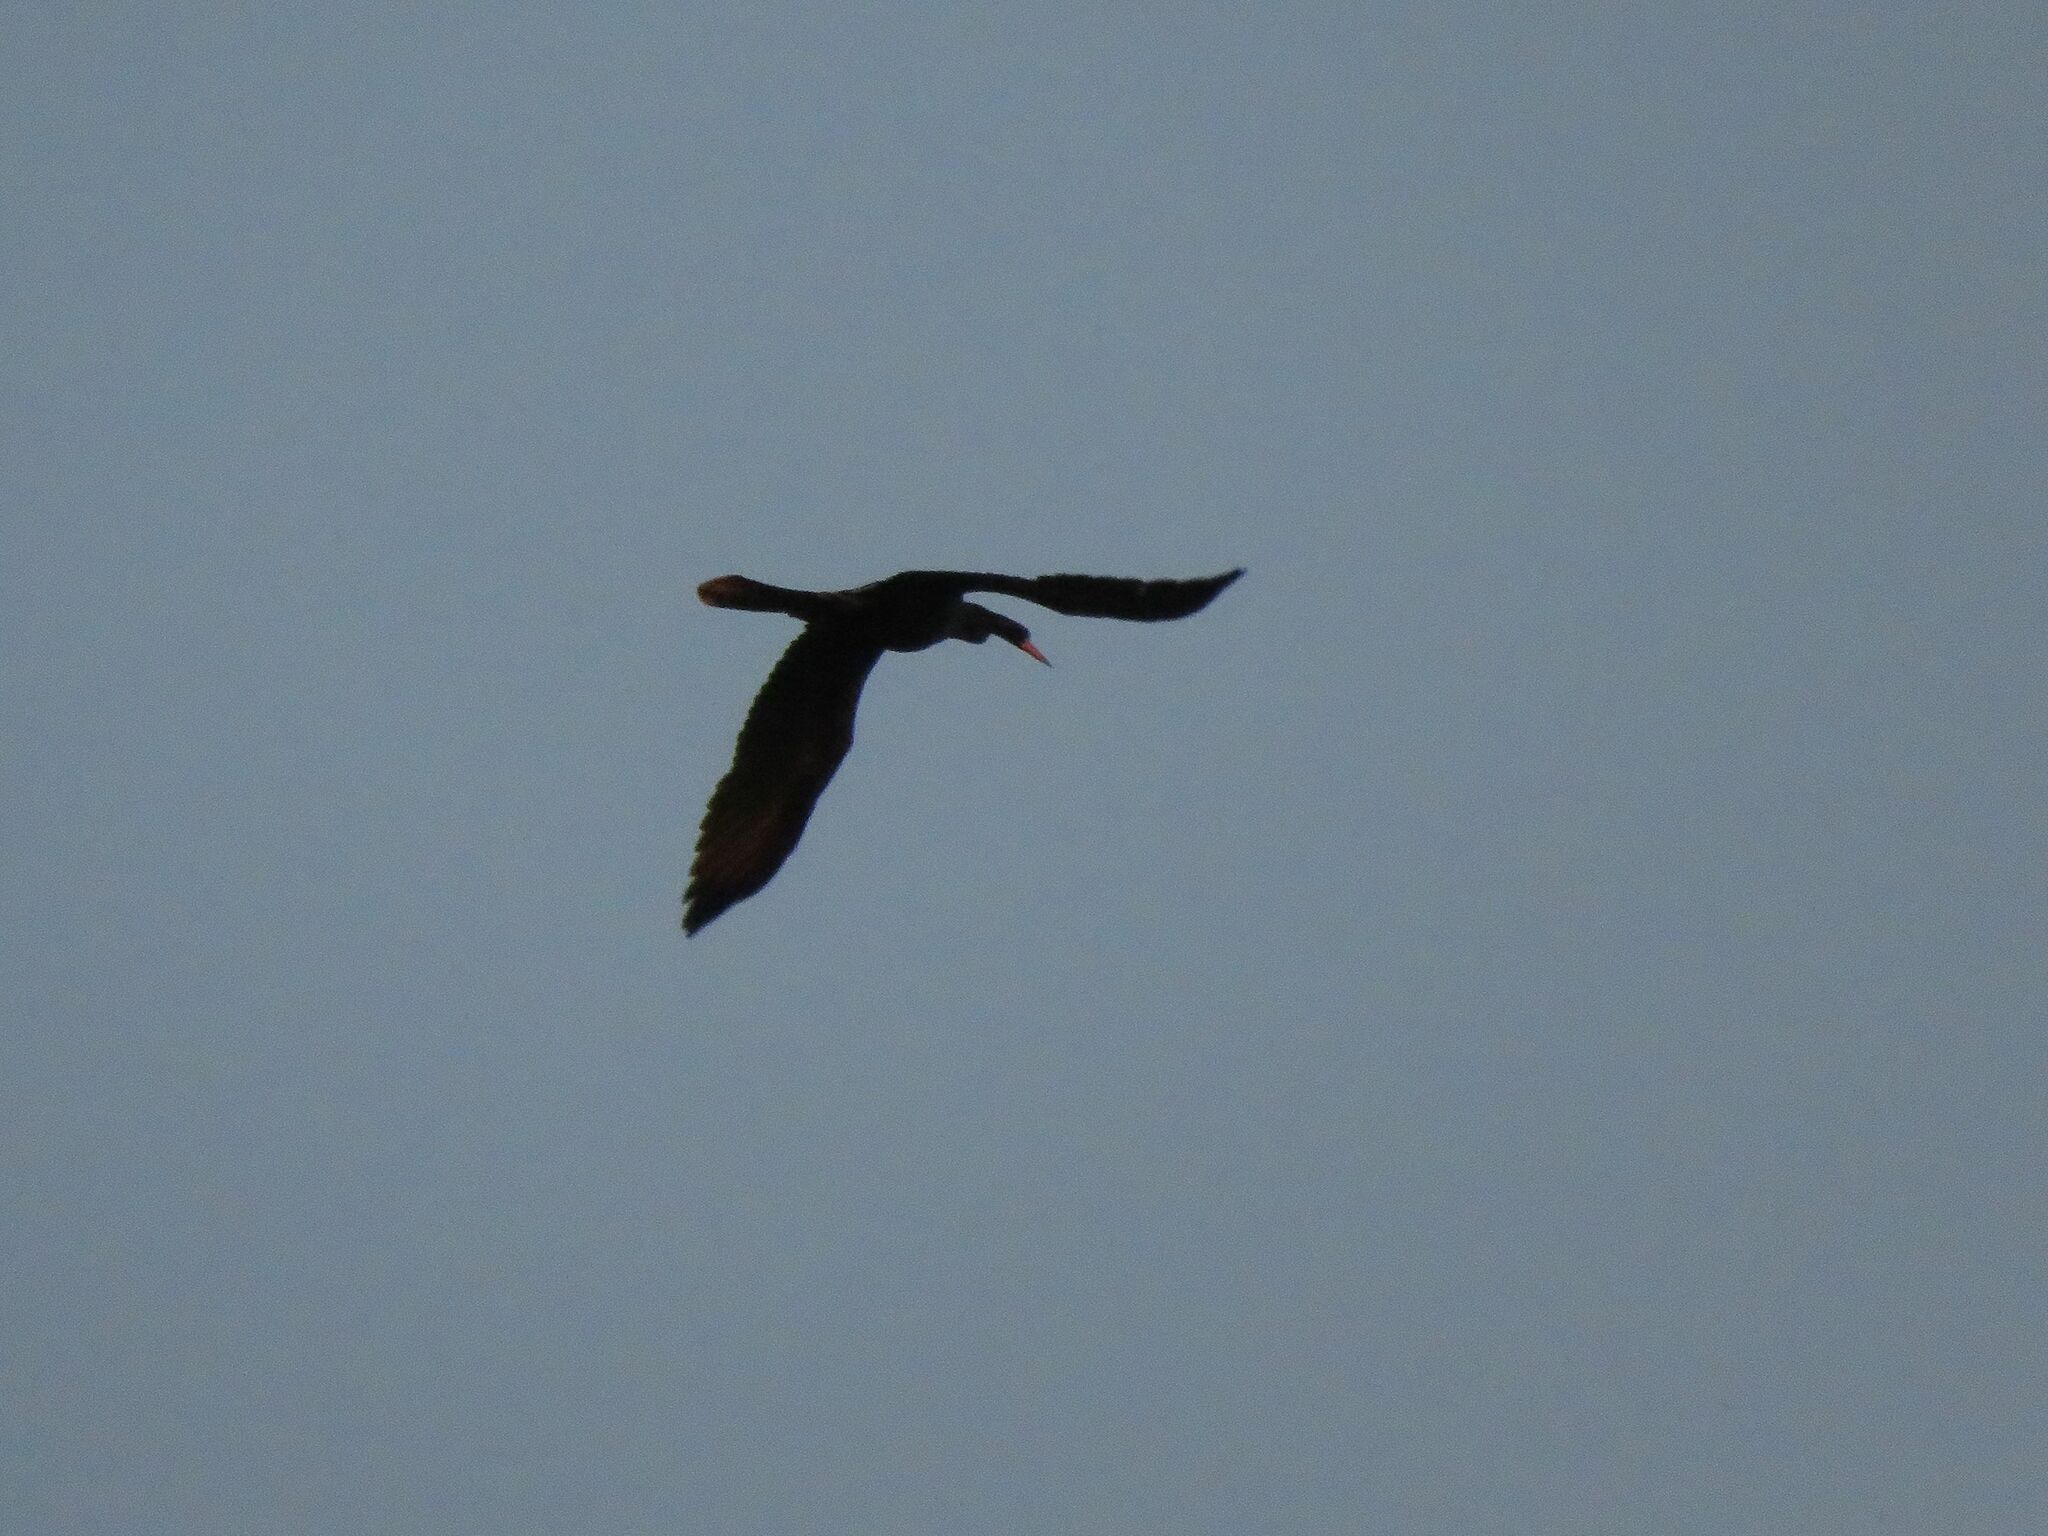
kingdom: Animalia
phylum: Chordata
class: Aves
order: Suliformes
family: Anhingidae
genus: Anhinga
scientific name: Anhinga anhinga
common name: Anhinga
